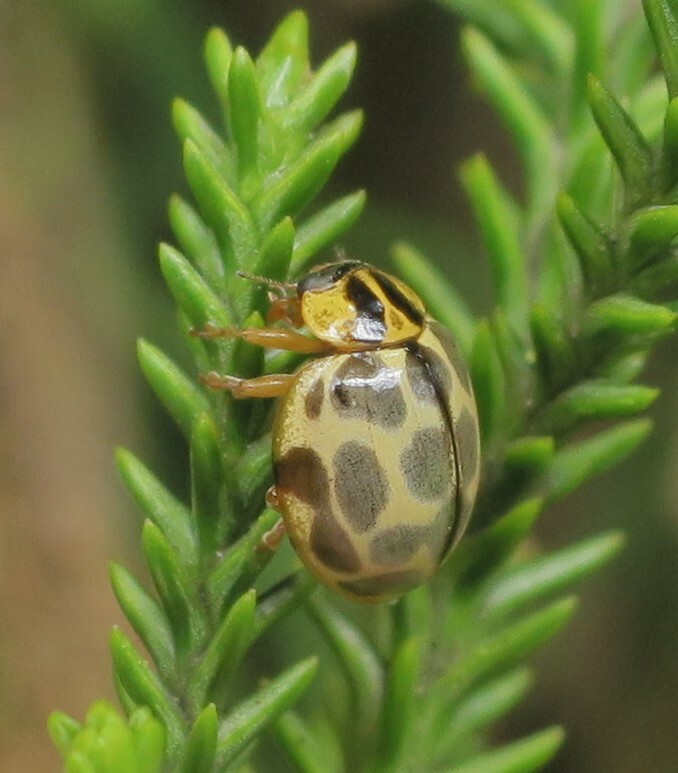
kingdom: Animalia
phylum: Arthropoda
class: Insecta
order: Coleoptera
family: Coccinellidae
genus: Harmonia
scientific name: Harmonia
